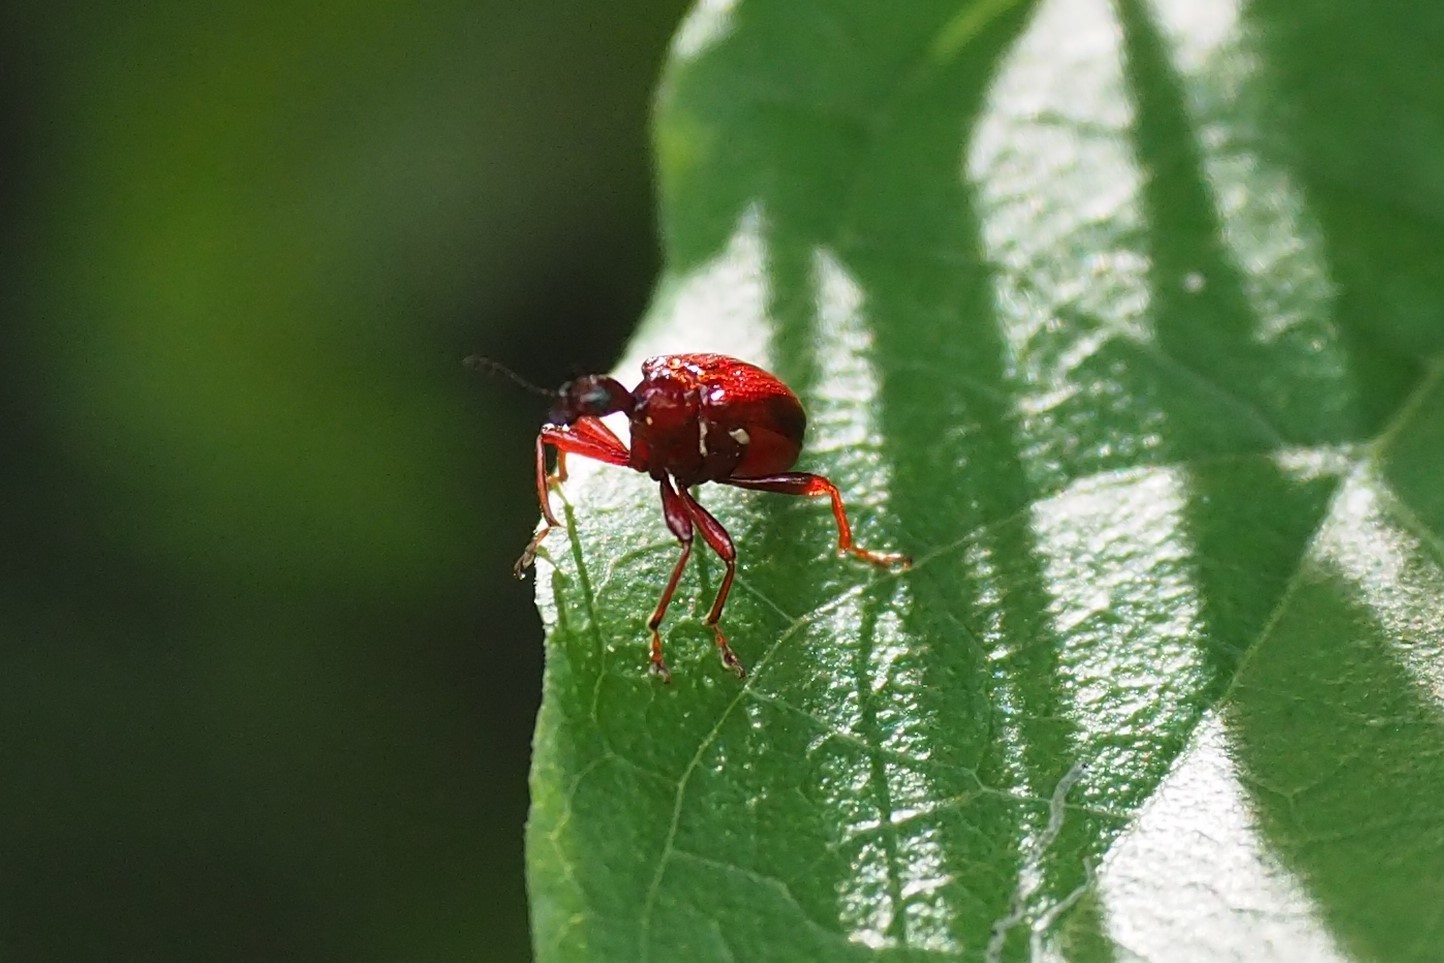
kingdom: Animalia
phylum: Arthropoda
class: Insecta
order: Coleoptera
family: Attelabidae
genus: Paratrachelophorus
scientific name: Paratrachelophorus nodicornis
